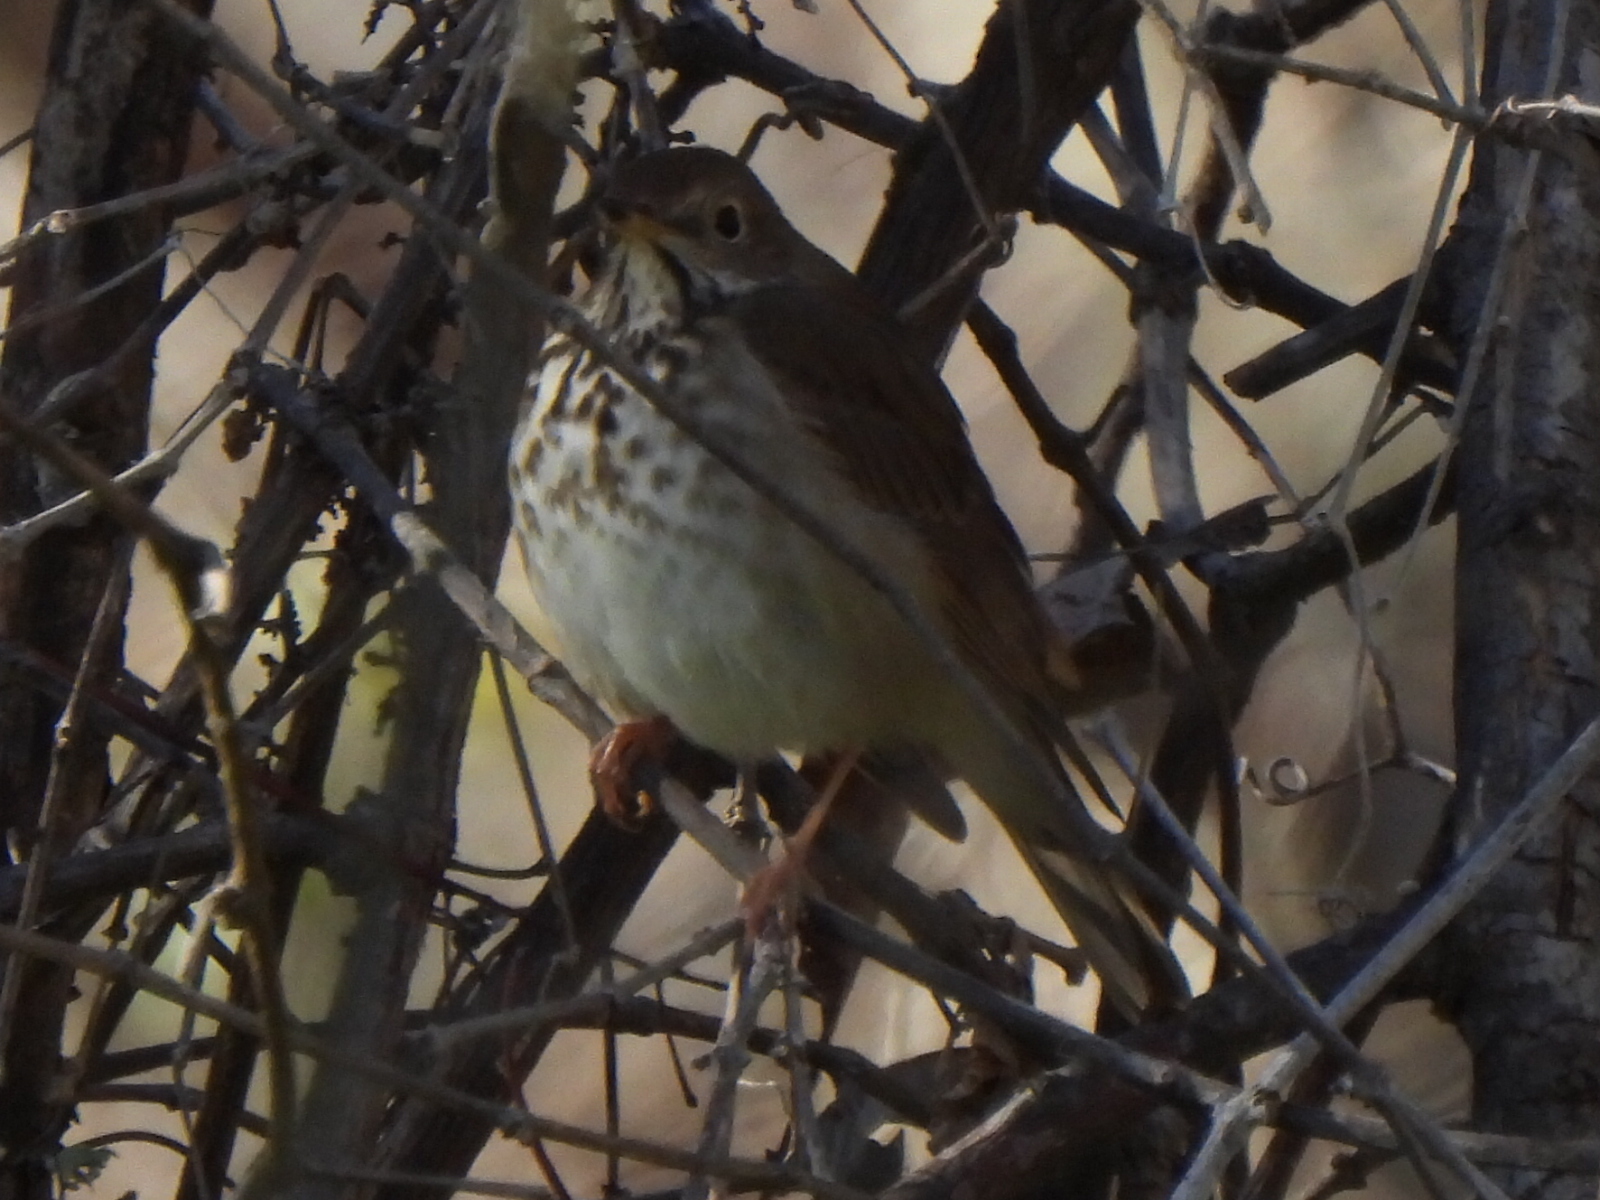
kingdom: Animalia
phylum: Chordata
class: Aves
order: Passeriformes
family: Turdidae
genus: Catharus
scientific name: Catharus guttatus
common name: Hermit thrush
